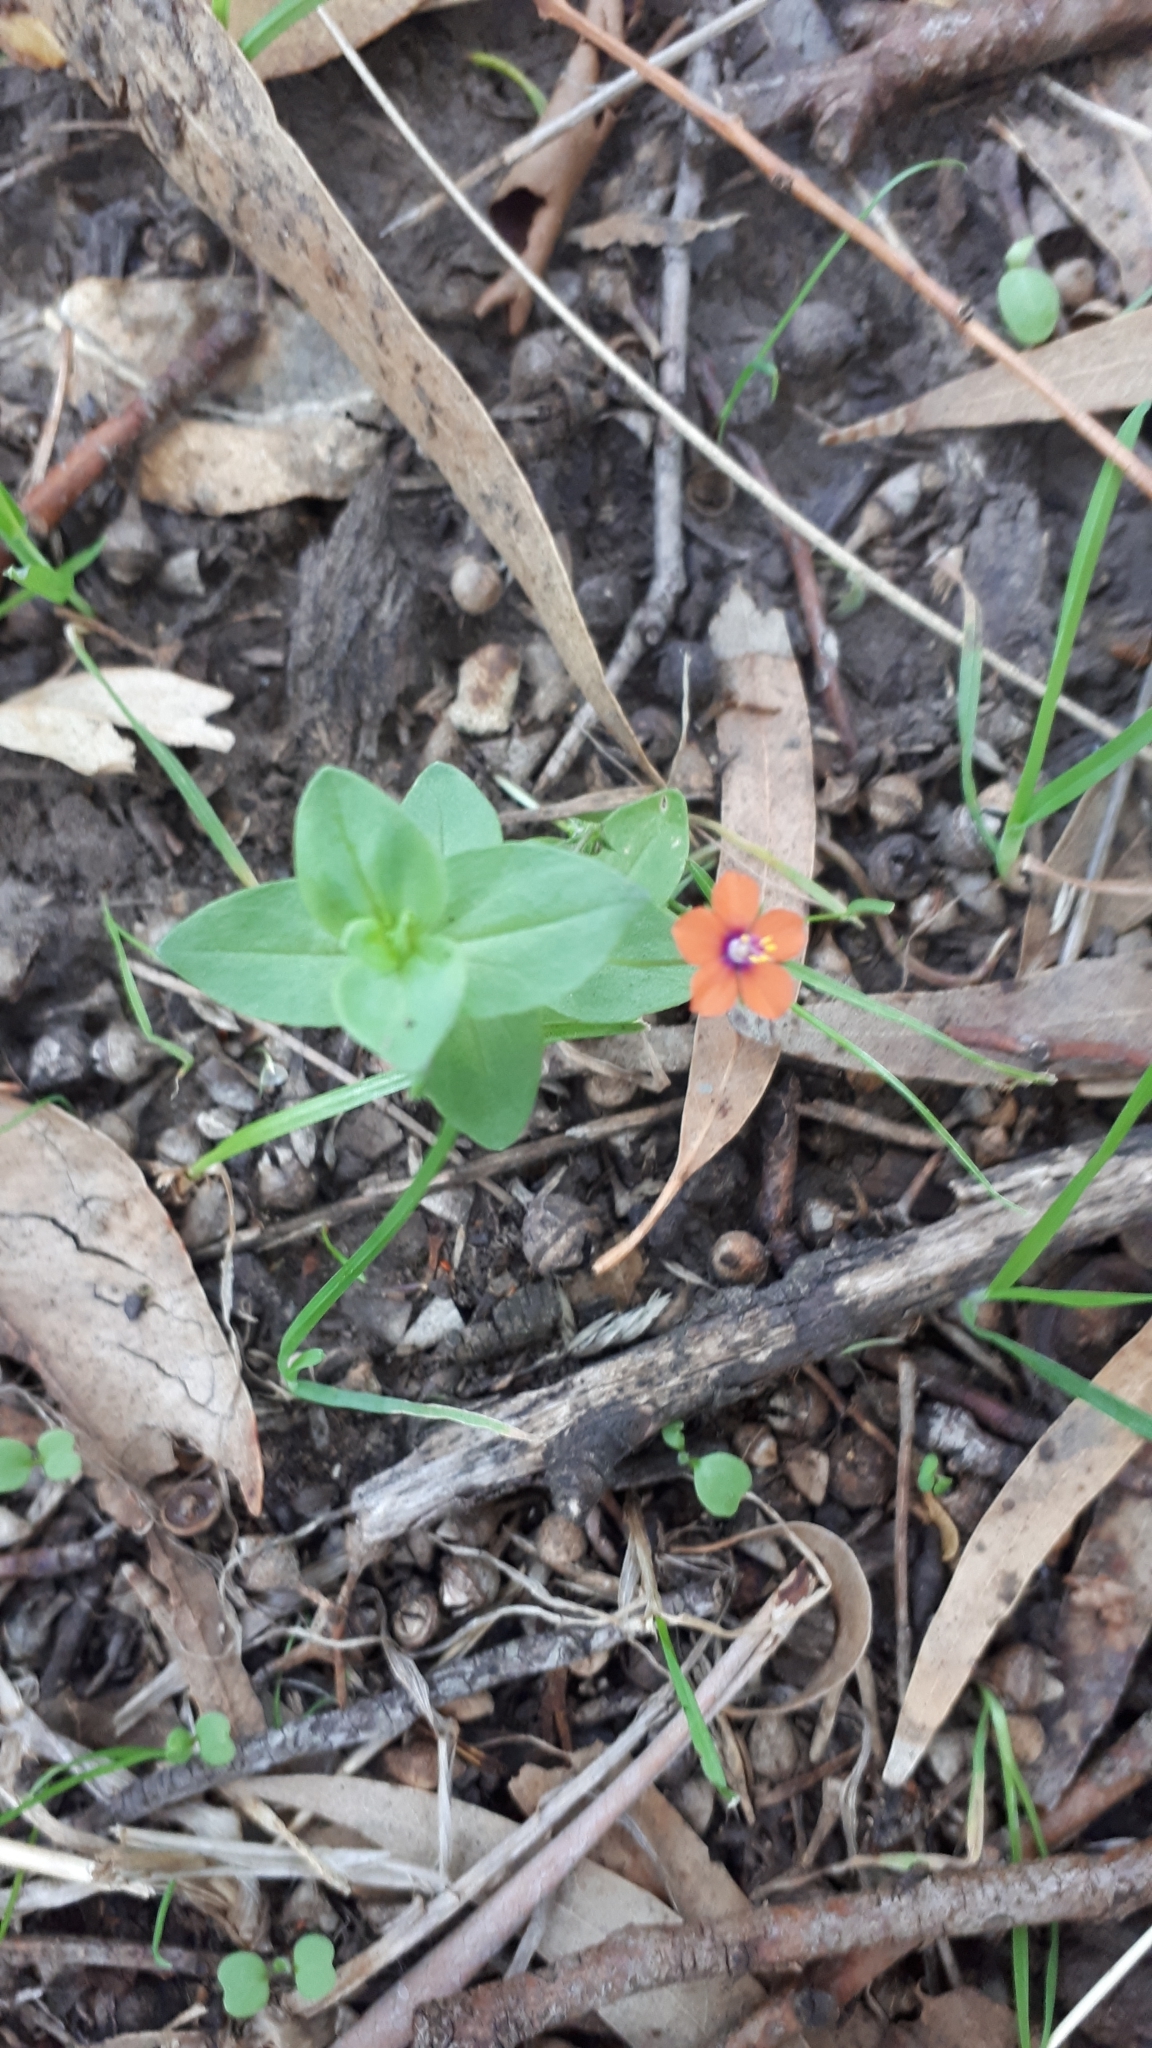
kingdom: Plantae
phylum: Tracheophyta
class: Magnoliopsida
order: Ericales
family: Primulaceae
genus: Lysimachia
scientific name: Lysimachia arvensis
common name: Scarlet pimpernel
